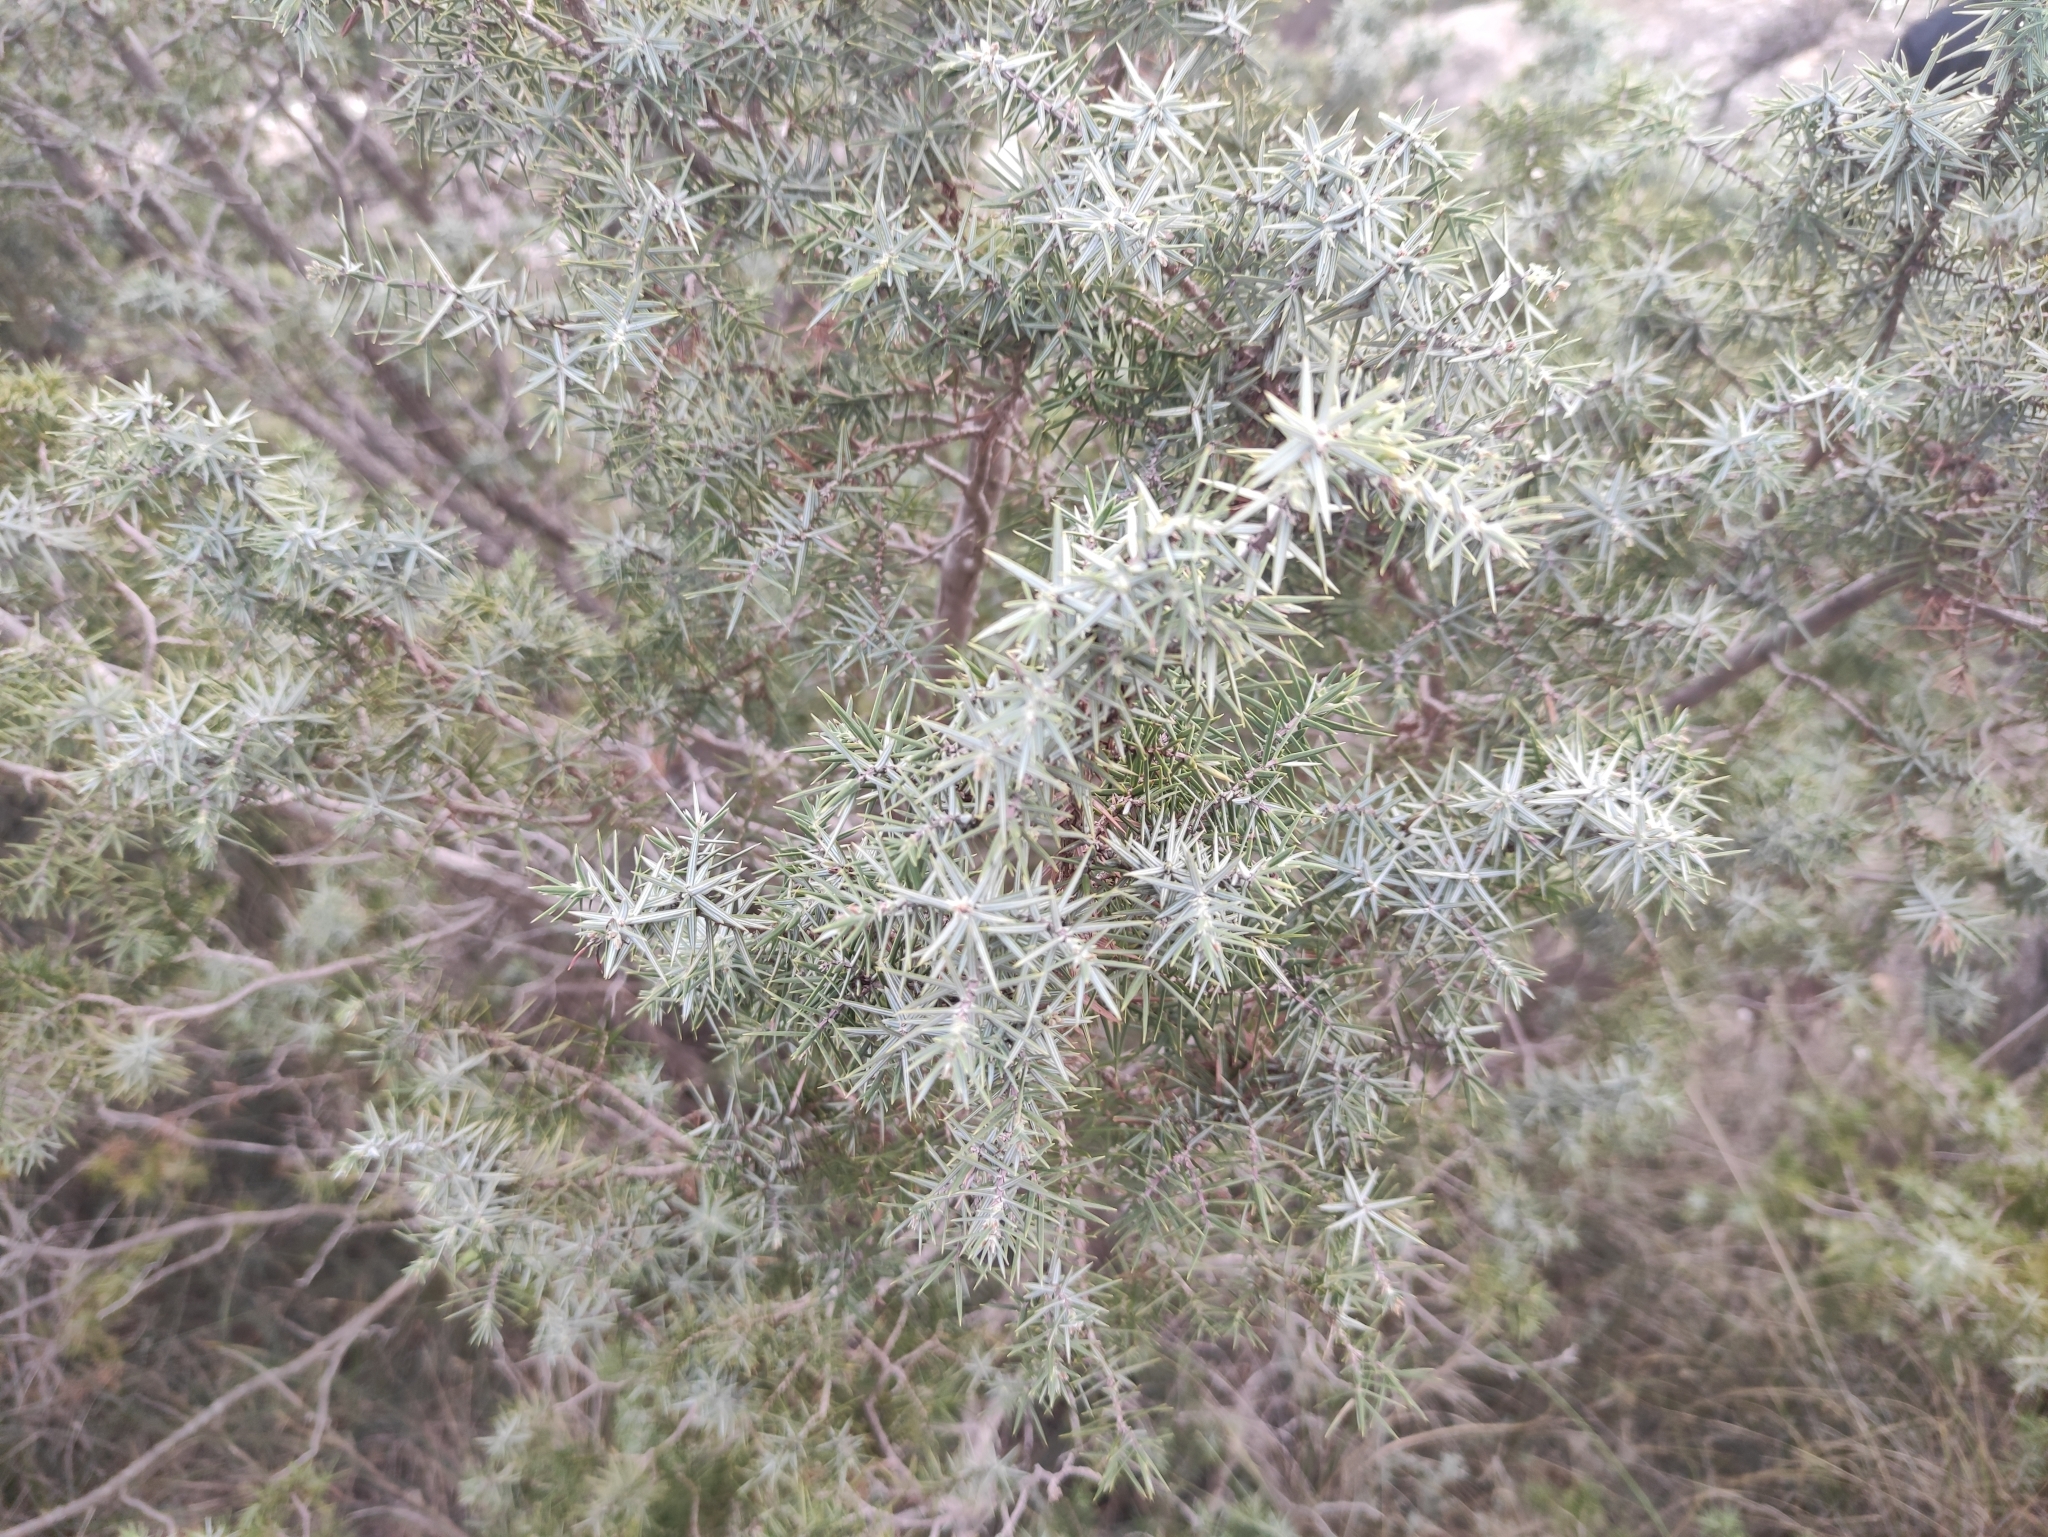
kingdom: Plantae
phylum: Tracheophyta
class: Pinopsida
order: Pinales
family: Cupressaceae
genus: Juniperus
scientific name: Juniperus oxycedrus
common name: Prickly juniper
